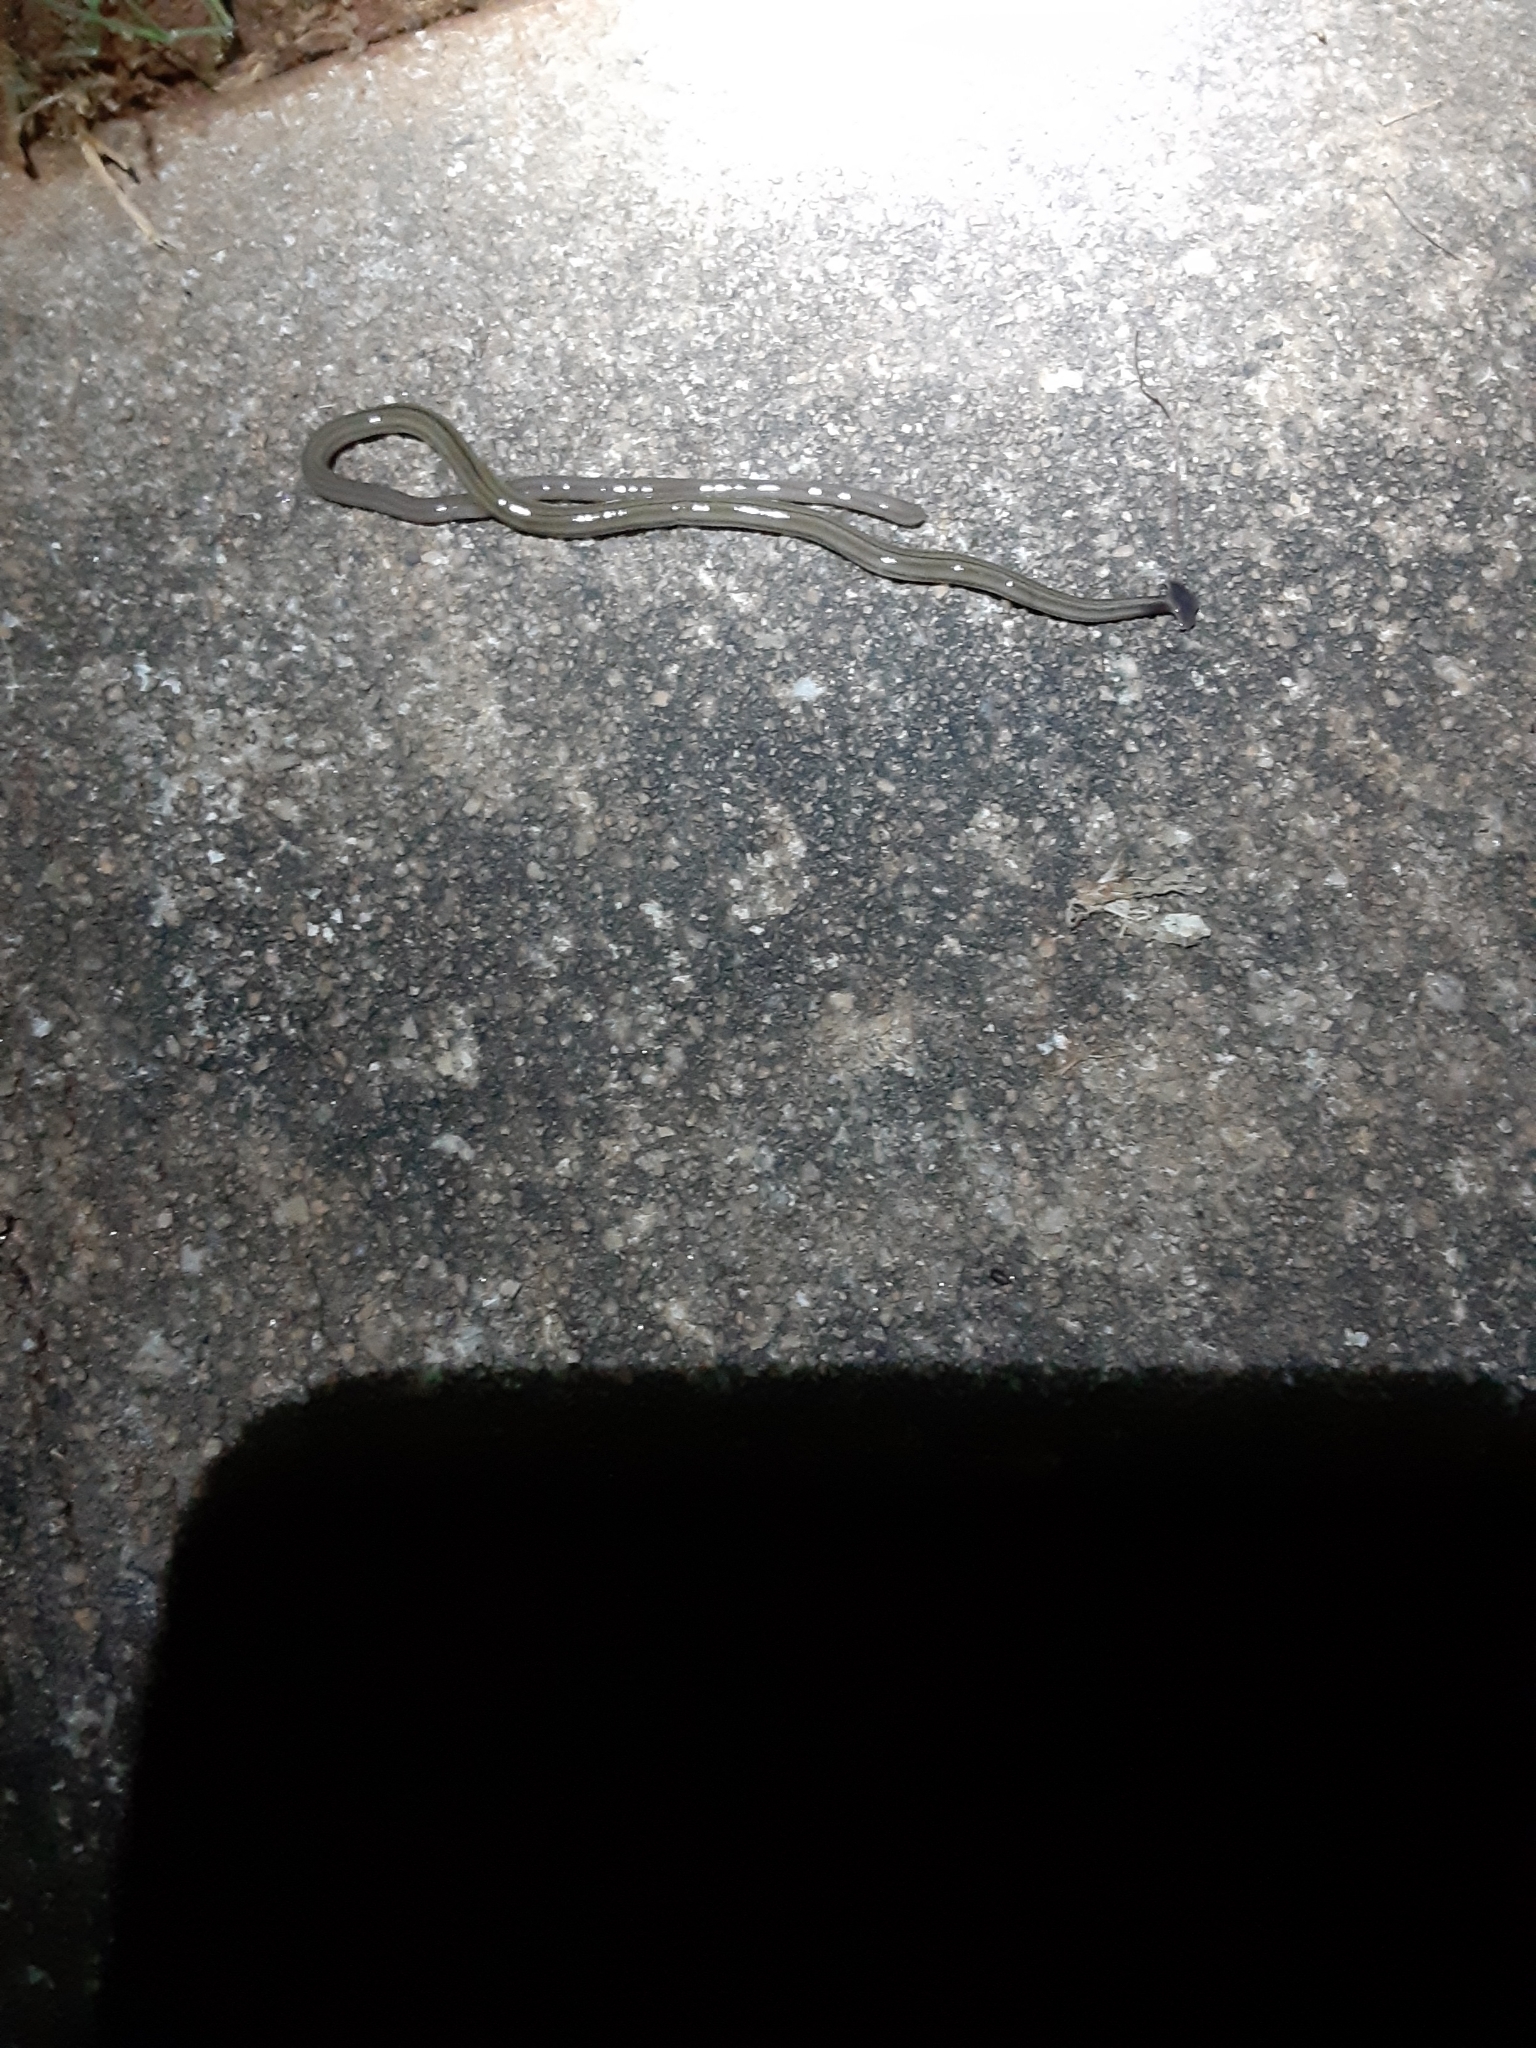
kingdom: Animalia
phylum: Platyhelminthes
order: Tricladida
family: Geoplanidae
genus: Bipalium
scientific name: Bipalium kewense
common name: Hammerhead flatworm
